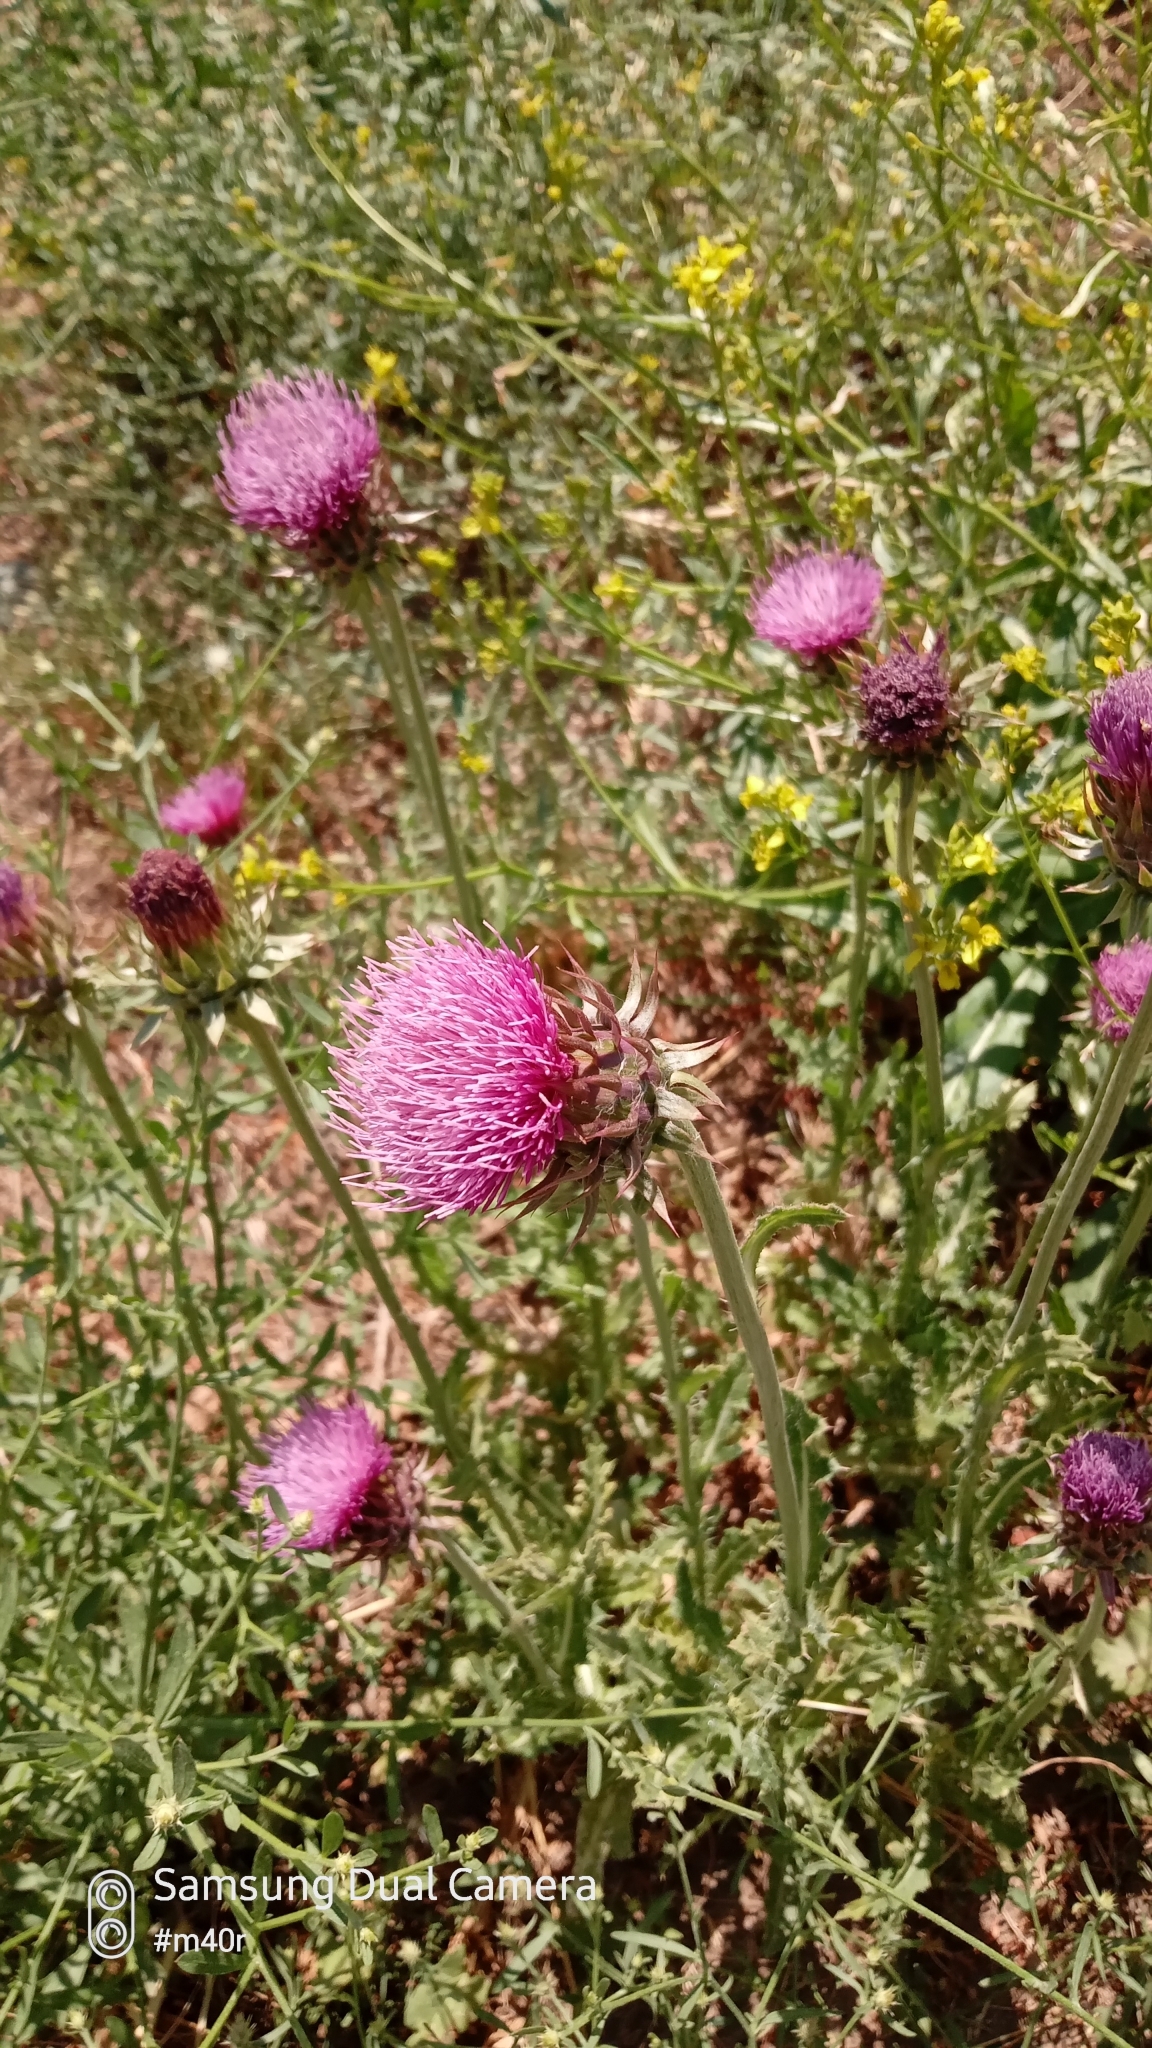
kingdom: Plantae
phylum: Tracheophyta
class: Magnoliopsida
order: Asterales
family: Asteraceae
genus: Carduus
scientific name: Carduus nutans
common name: Musk thistle
